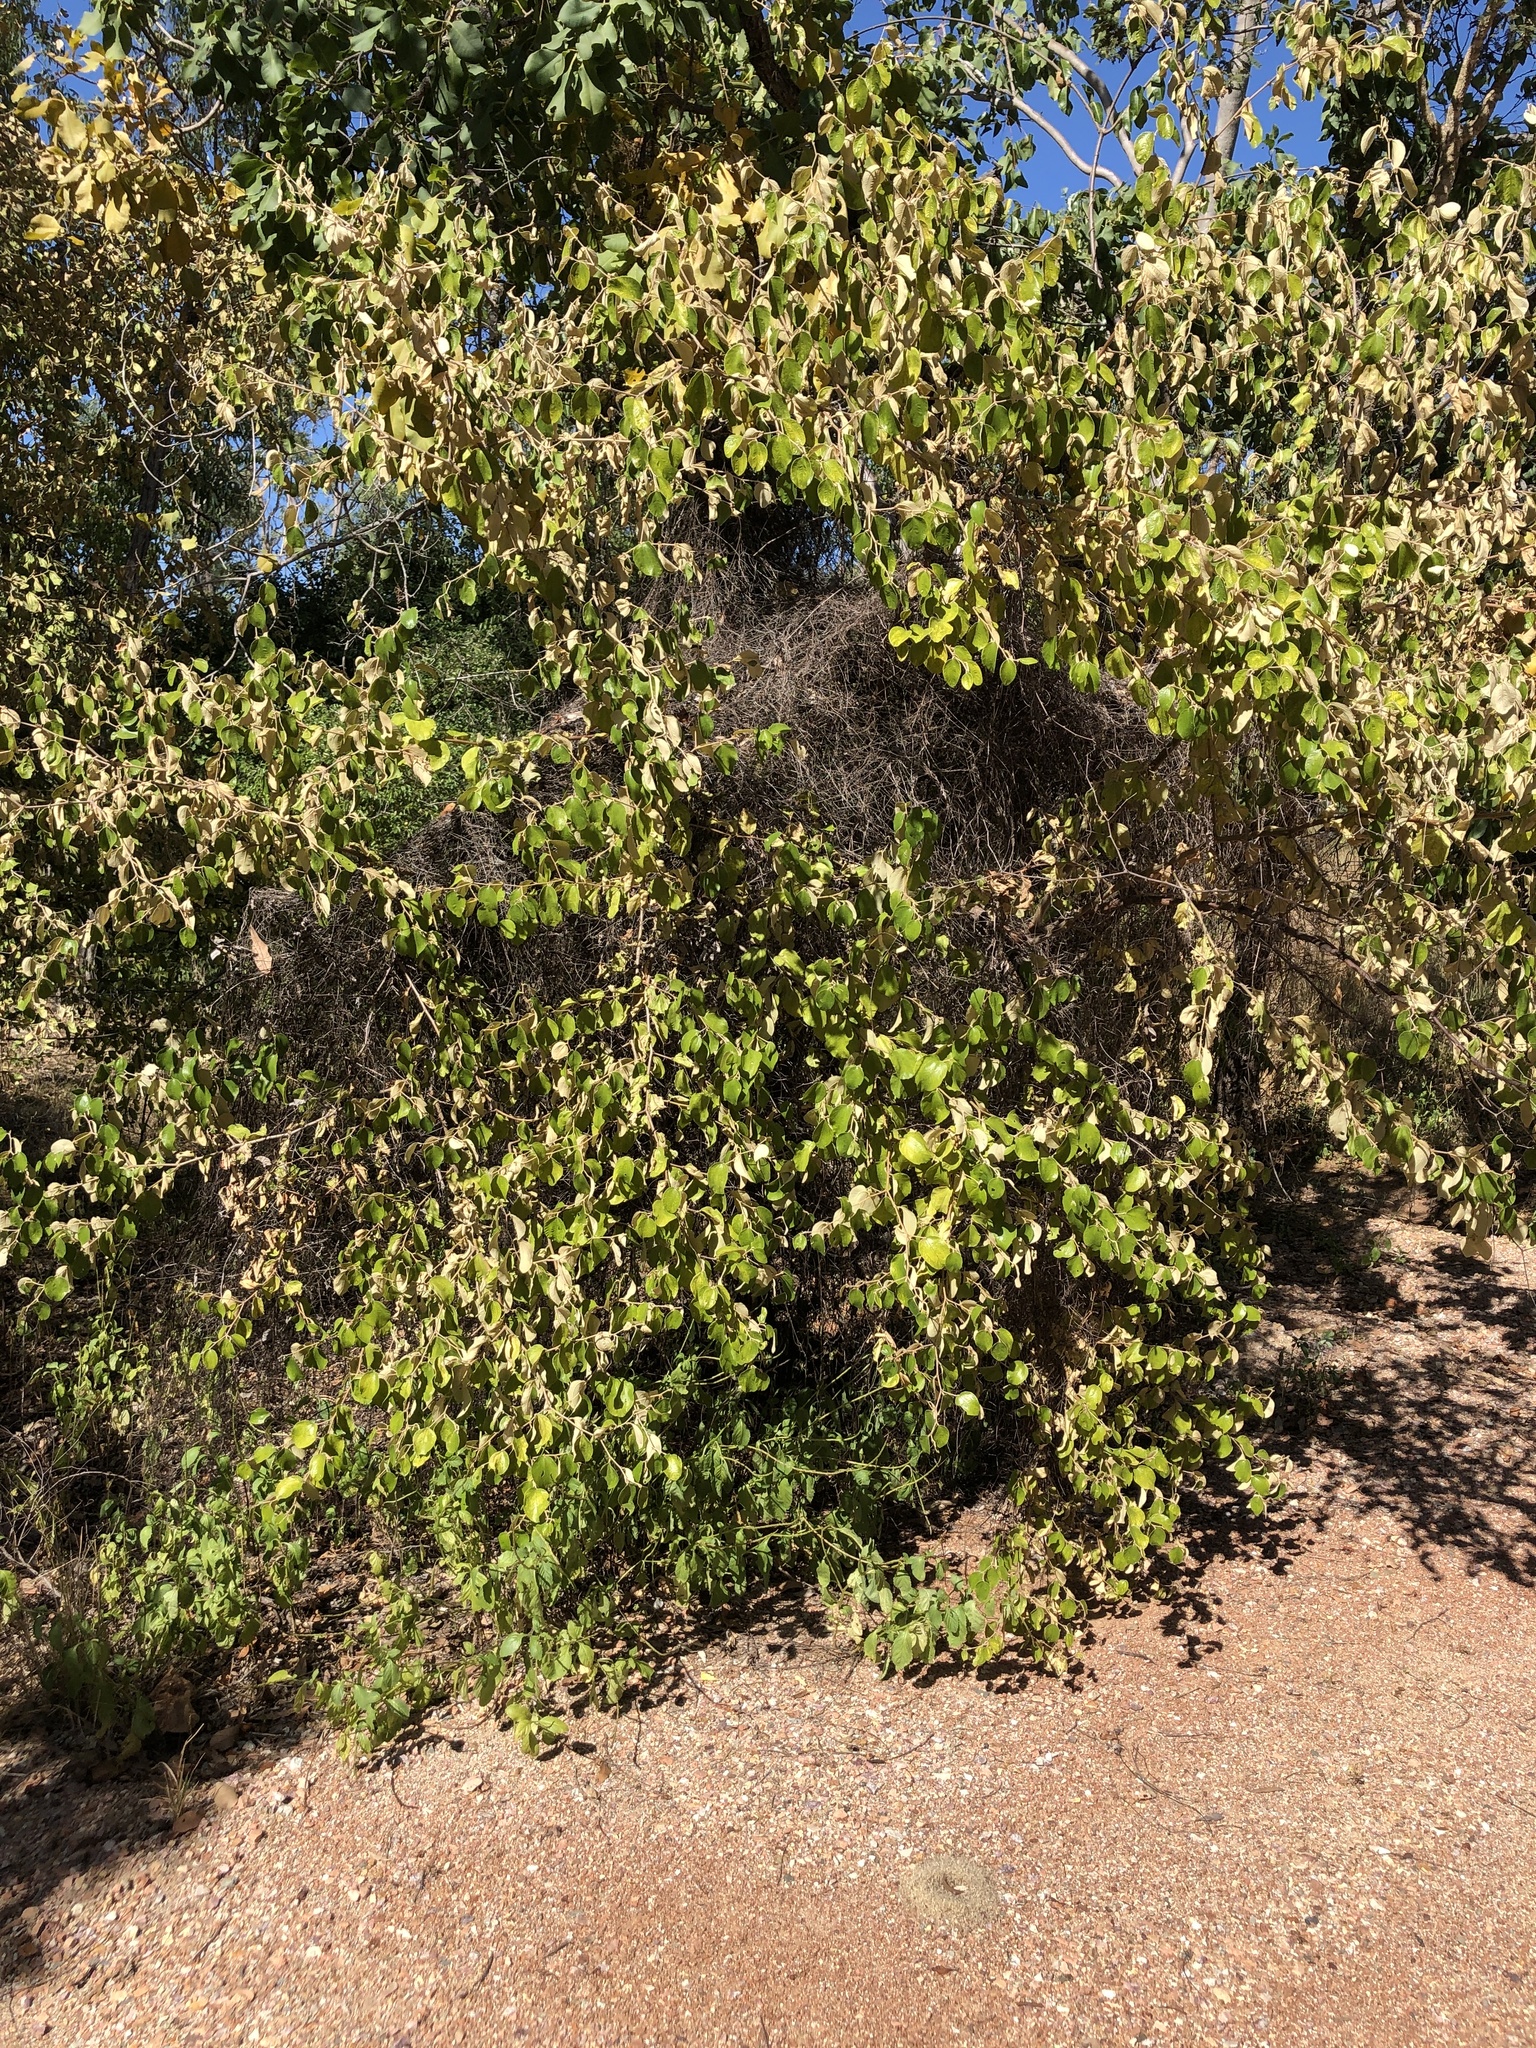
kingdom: Plantae
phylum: Tracheophyta
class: Magnoliopsida
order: Rosales
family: Rhamnaceae
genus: Ziziphus
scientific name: Ziziphus mauritiana
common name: Indian jujube
